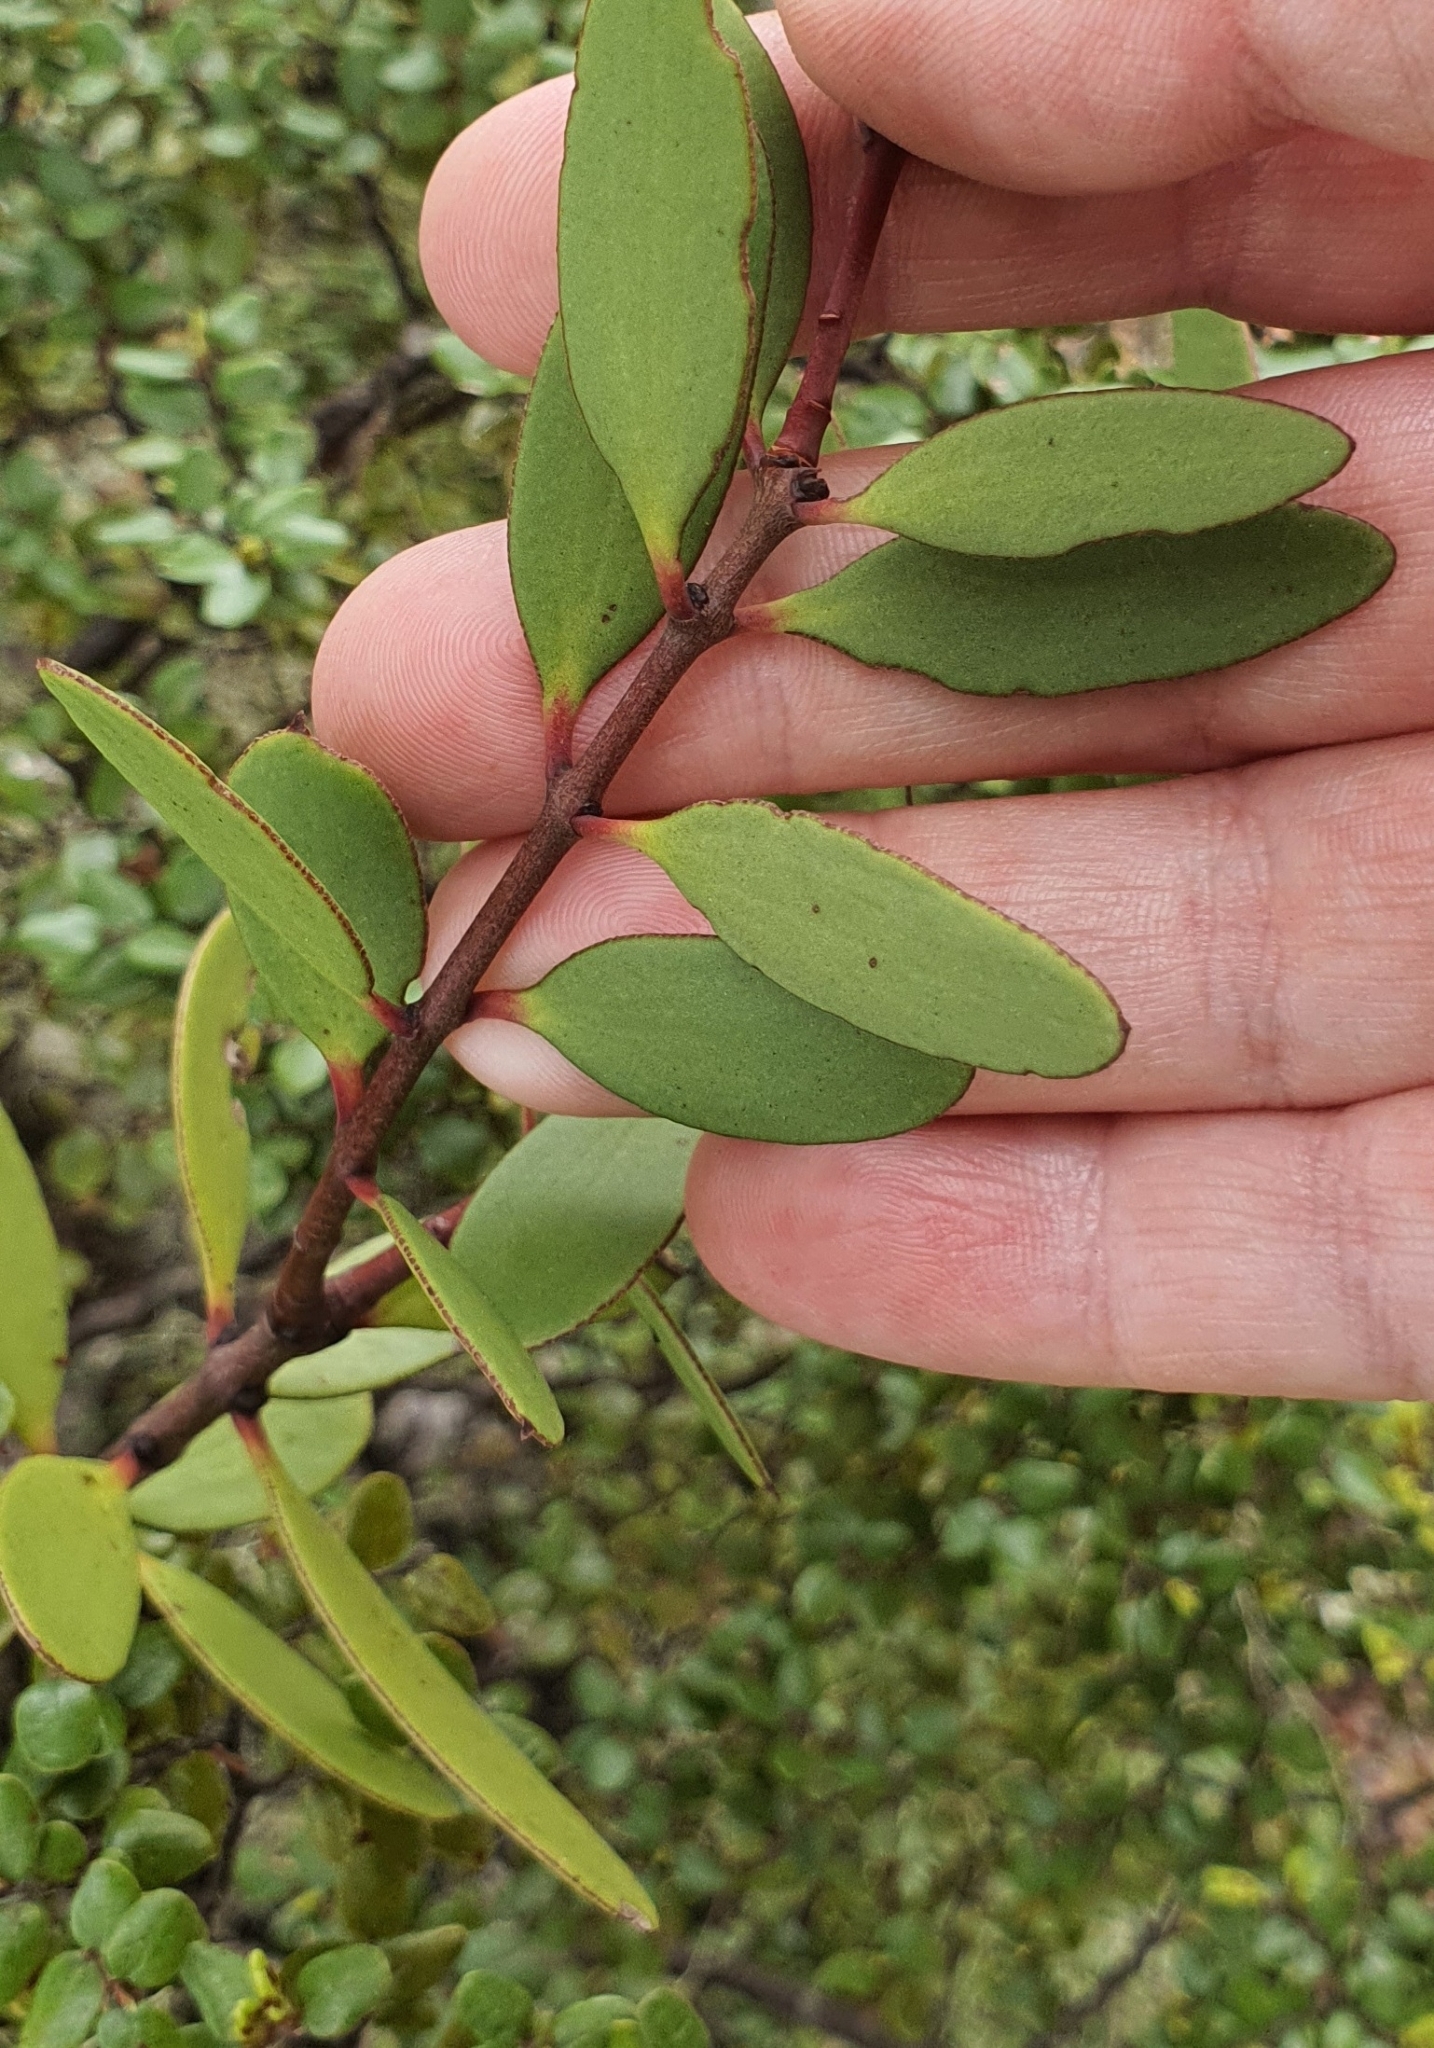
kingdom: Plantae
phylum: Tracheophyta
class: Magnoliopsida
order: Santalales
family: Loranthaceae
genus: Alepis
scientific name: Alepis flavida
